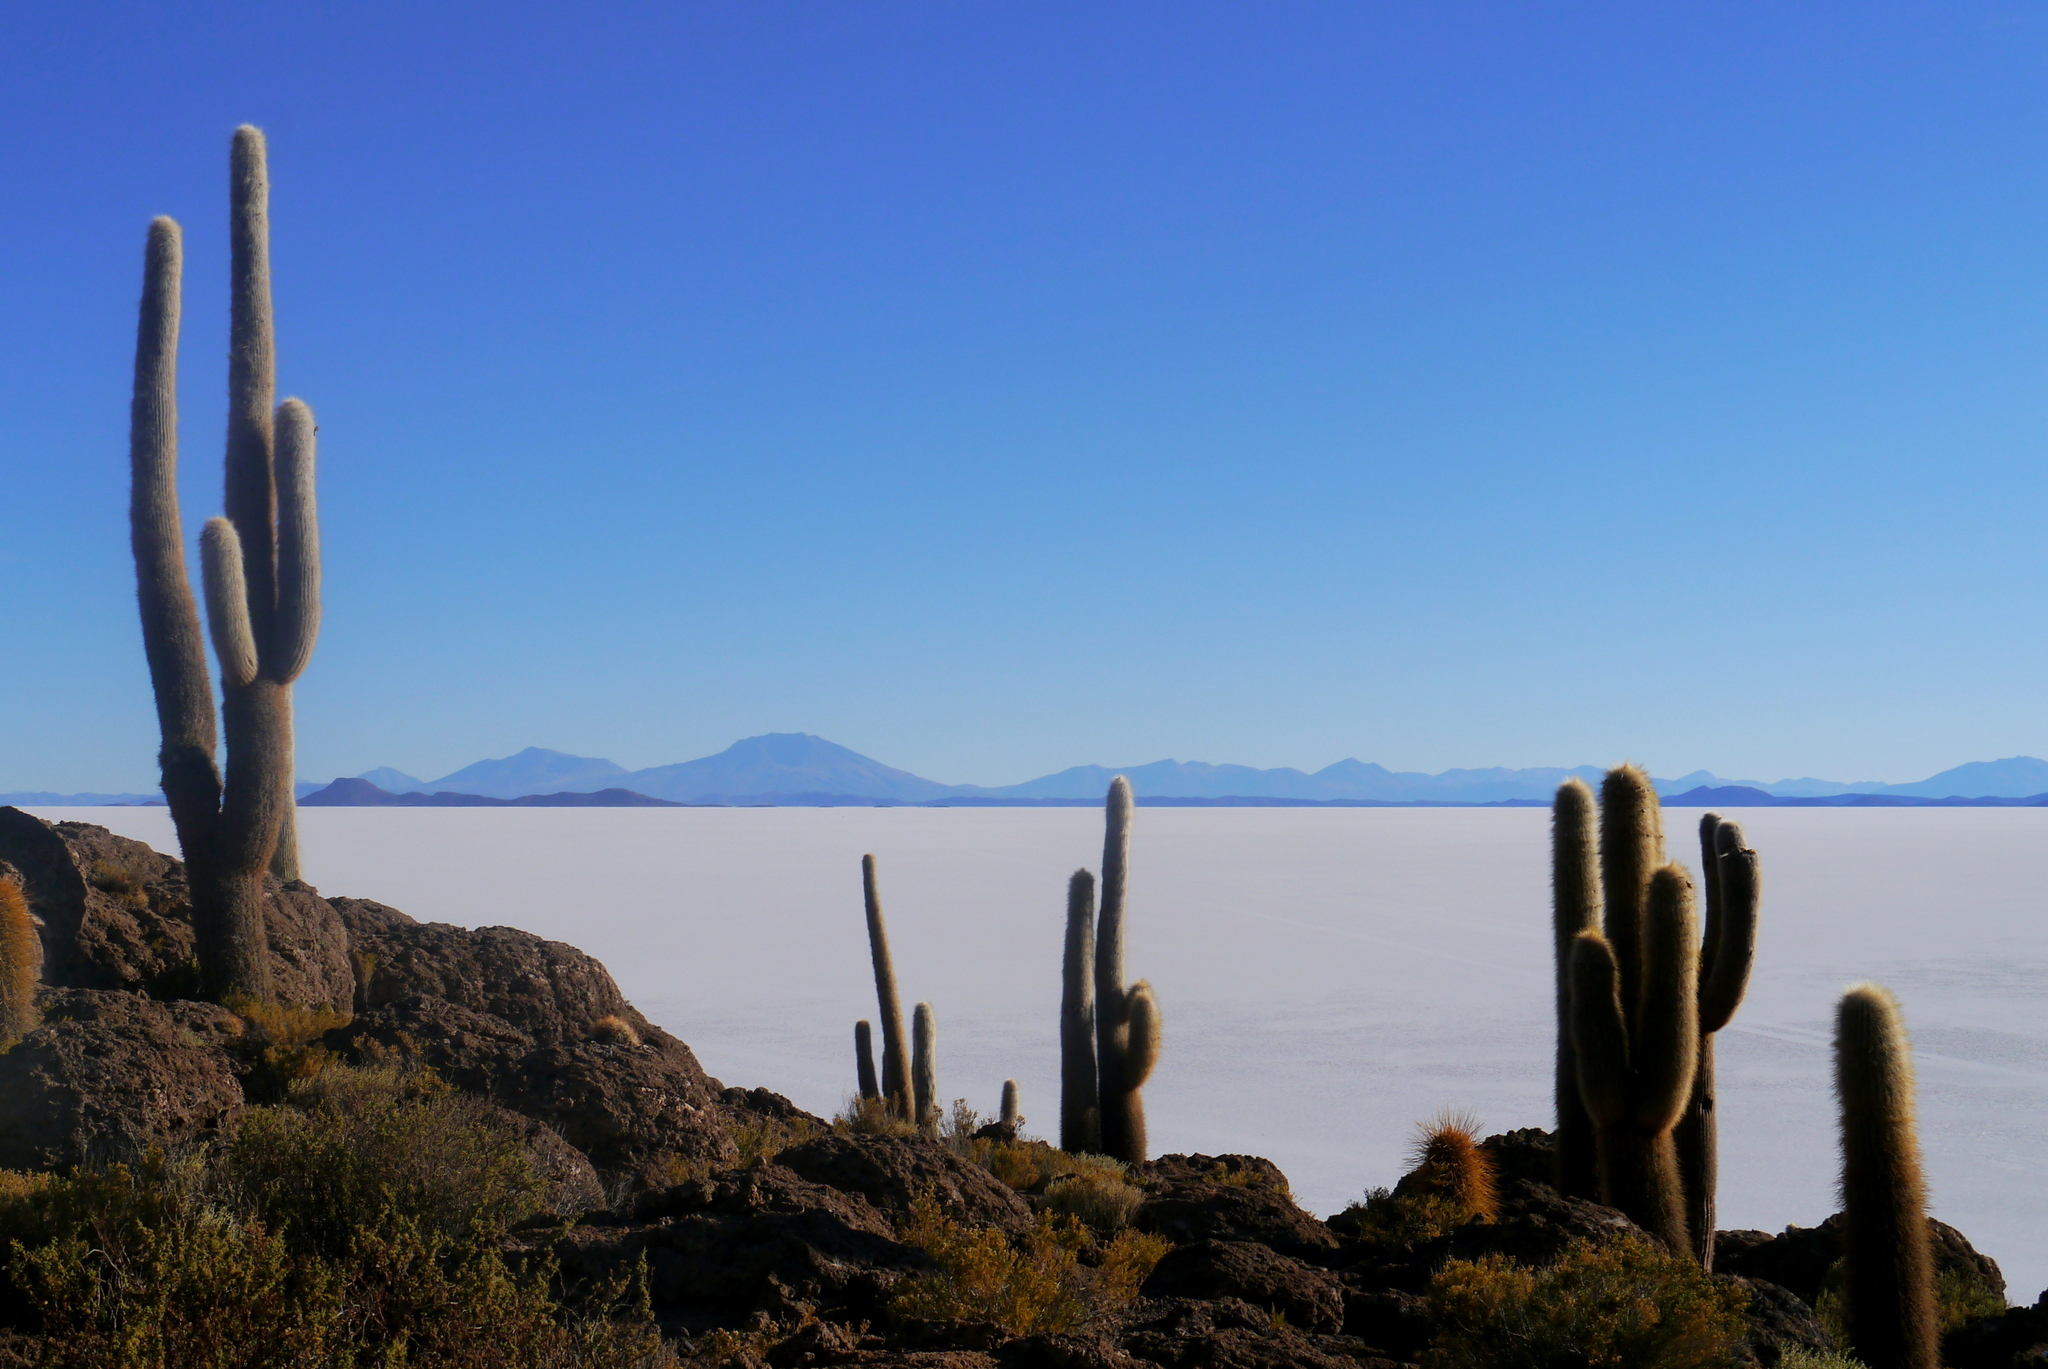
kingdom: Plantae
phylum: Tracheophyta
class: Magnoliopsida
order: Caryophyllales
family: Cactaceae
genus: Leucostele
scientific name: Leucostele atacamensis
